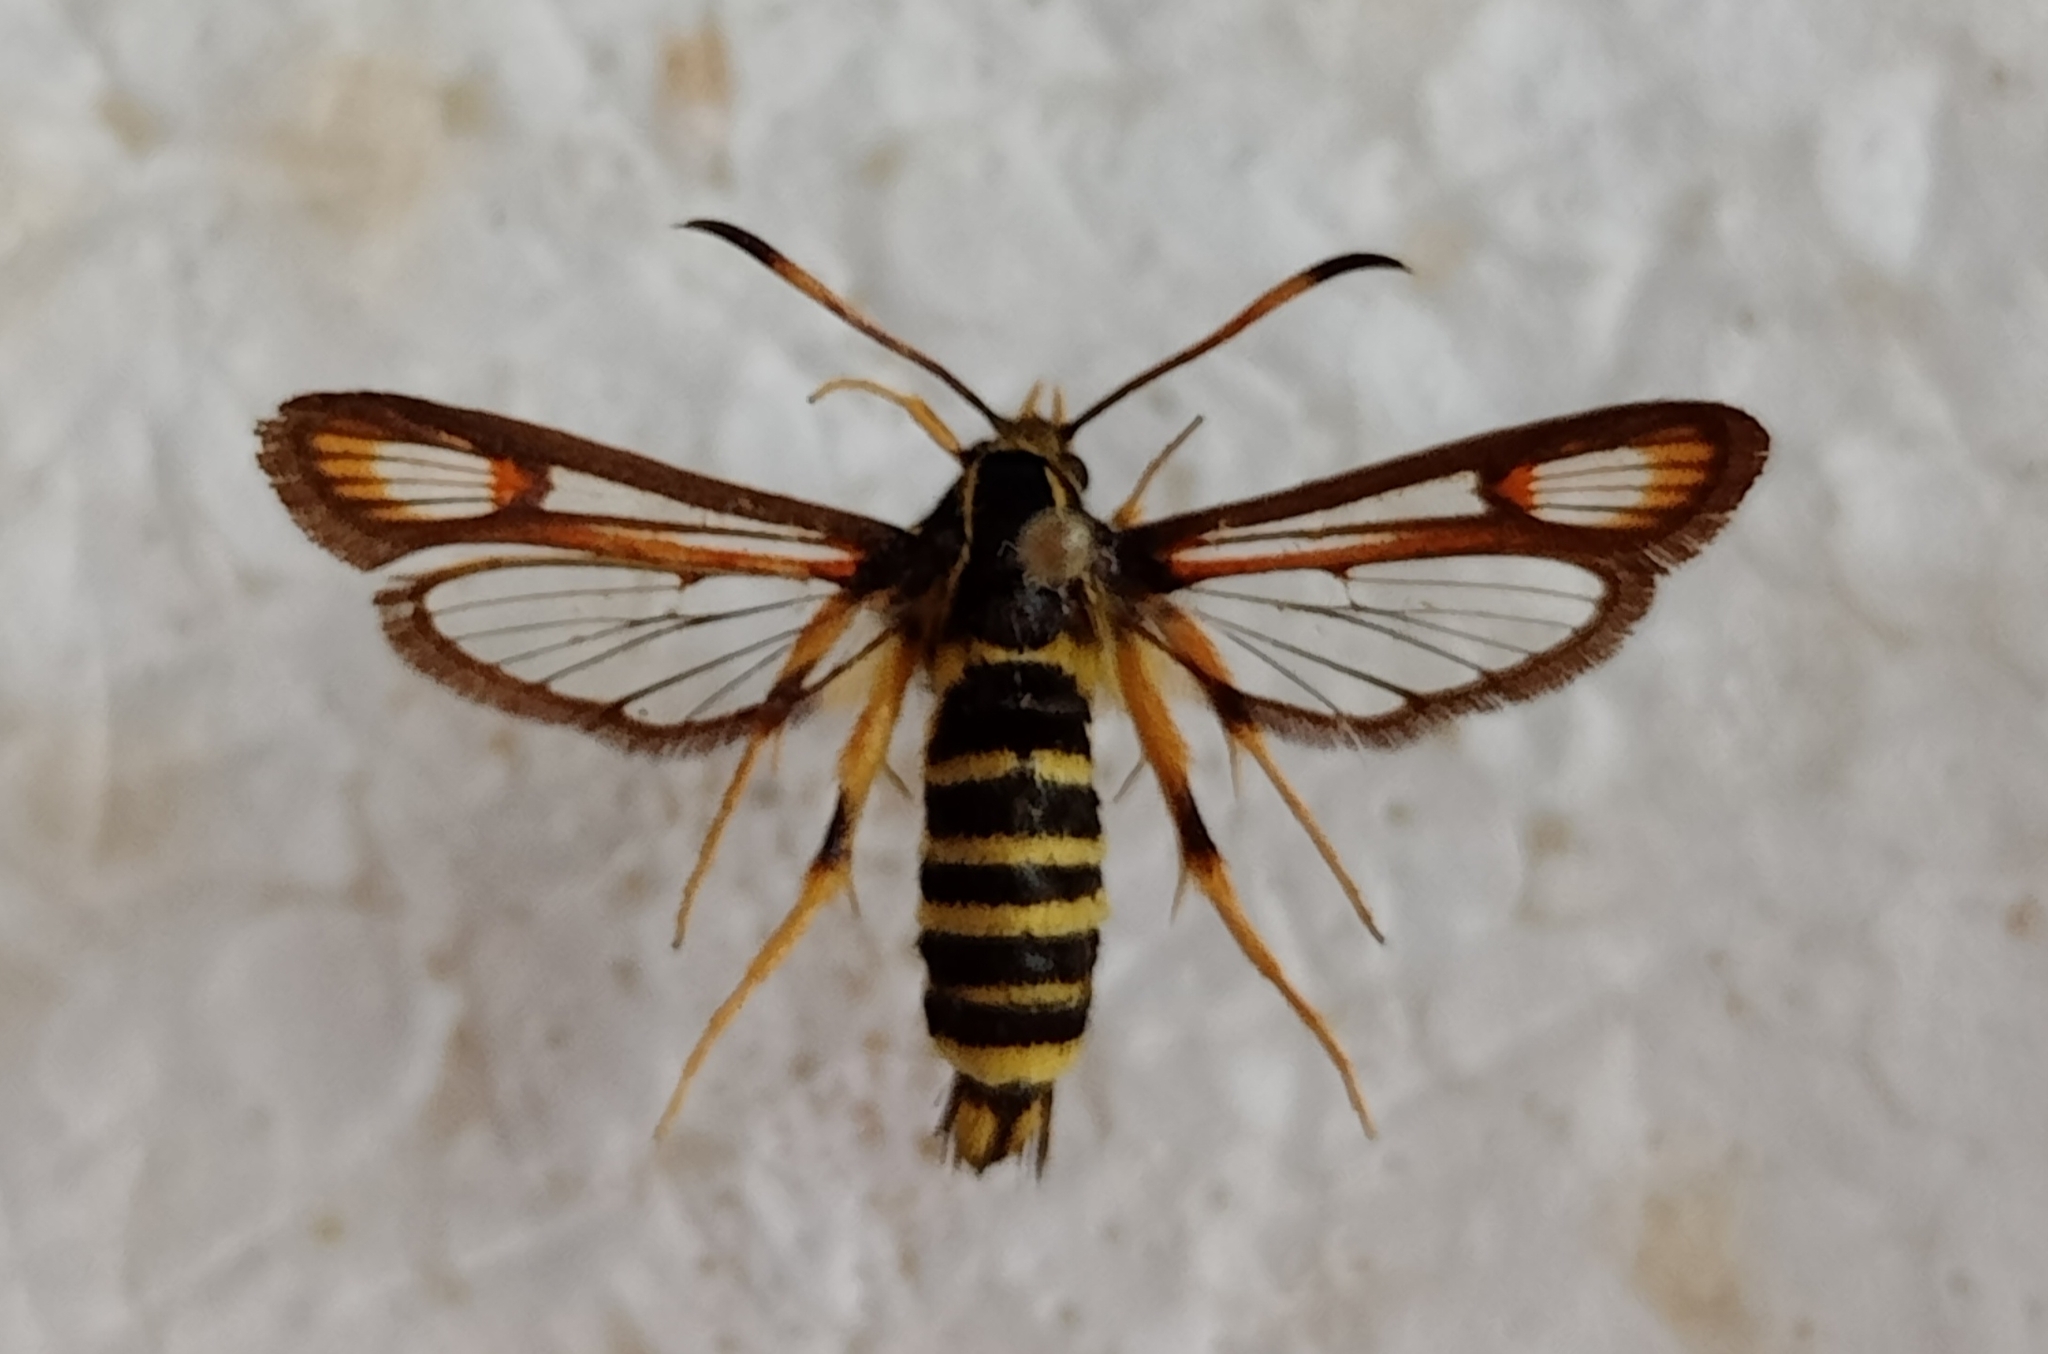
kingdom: Animalia
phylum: Arthropoda
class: Insecta
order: Lepidoptera
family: Sesiidae
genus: Bembecia
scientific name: Bembecia ichneumoniformis
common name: Six-belted clearwing
